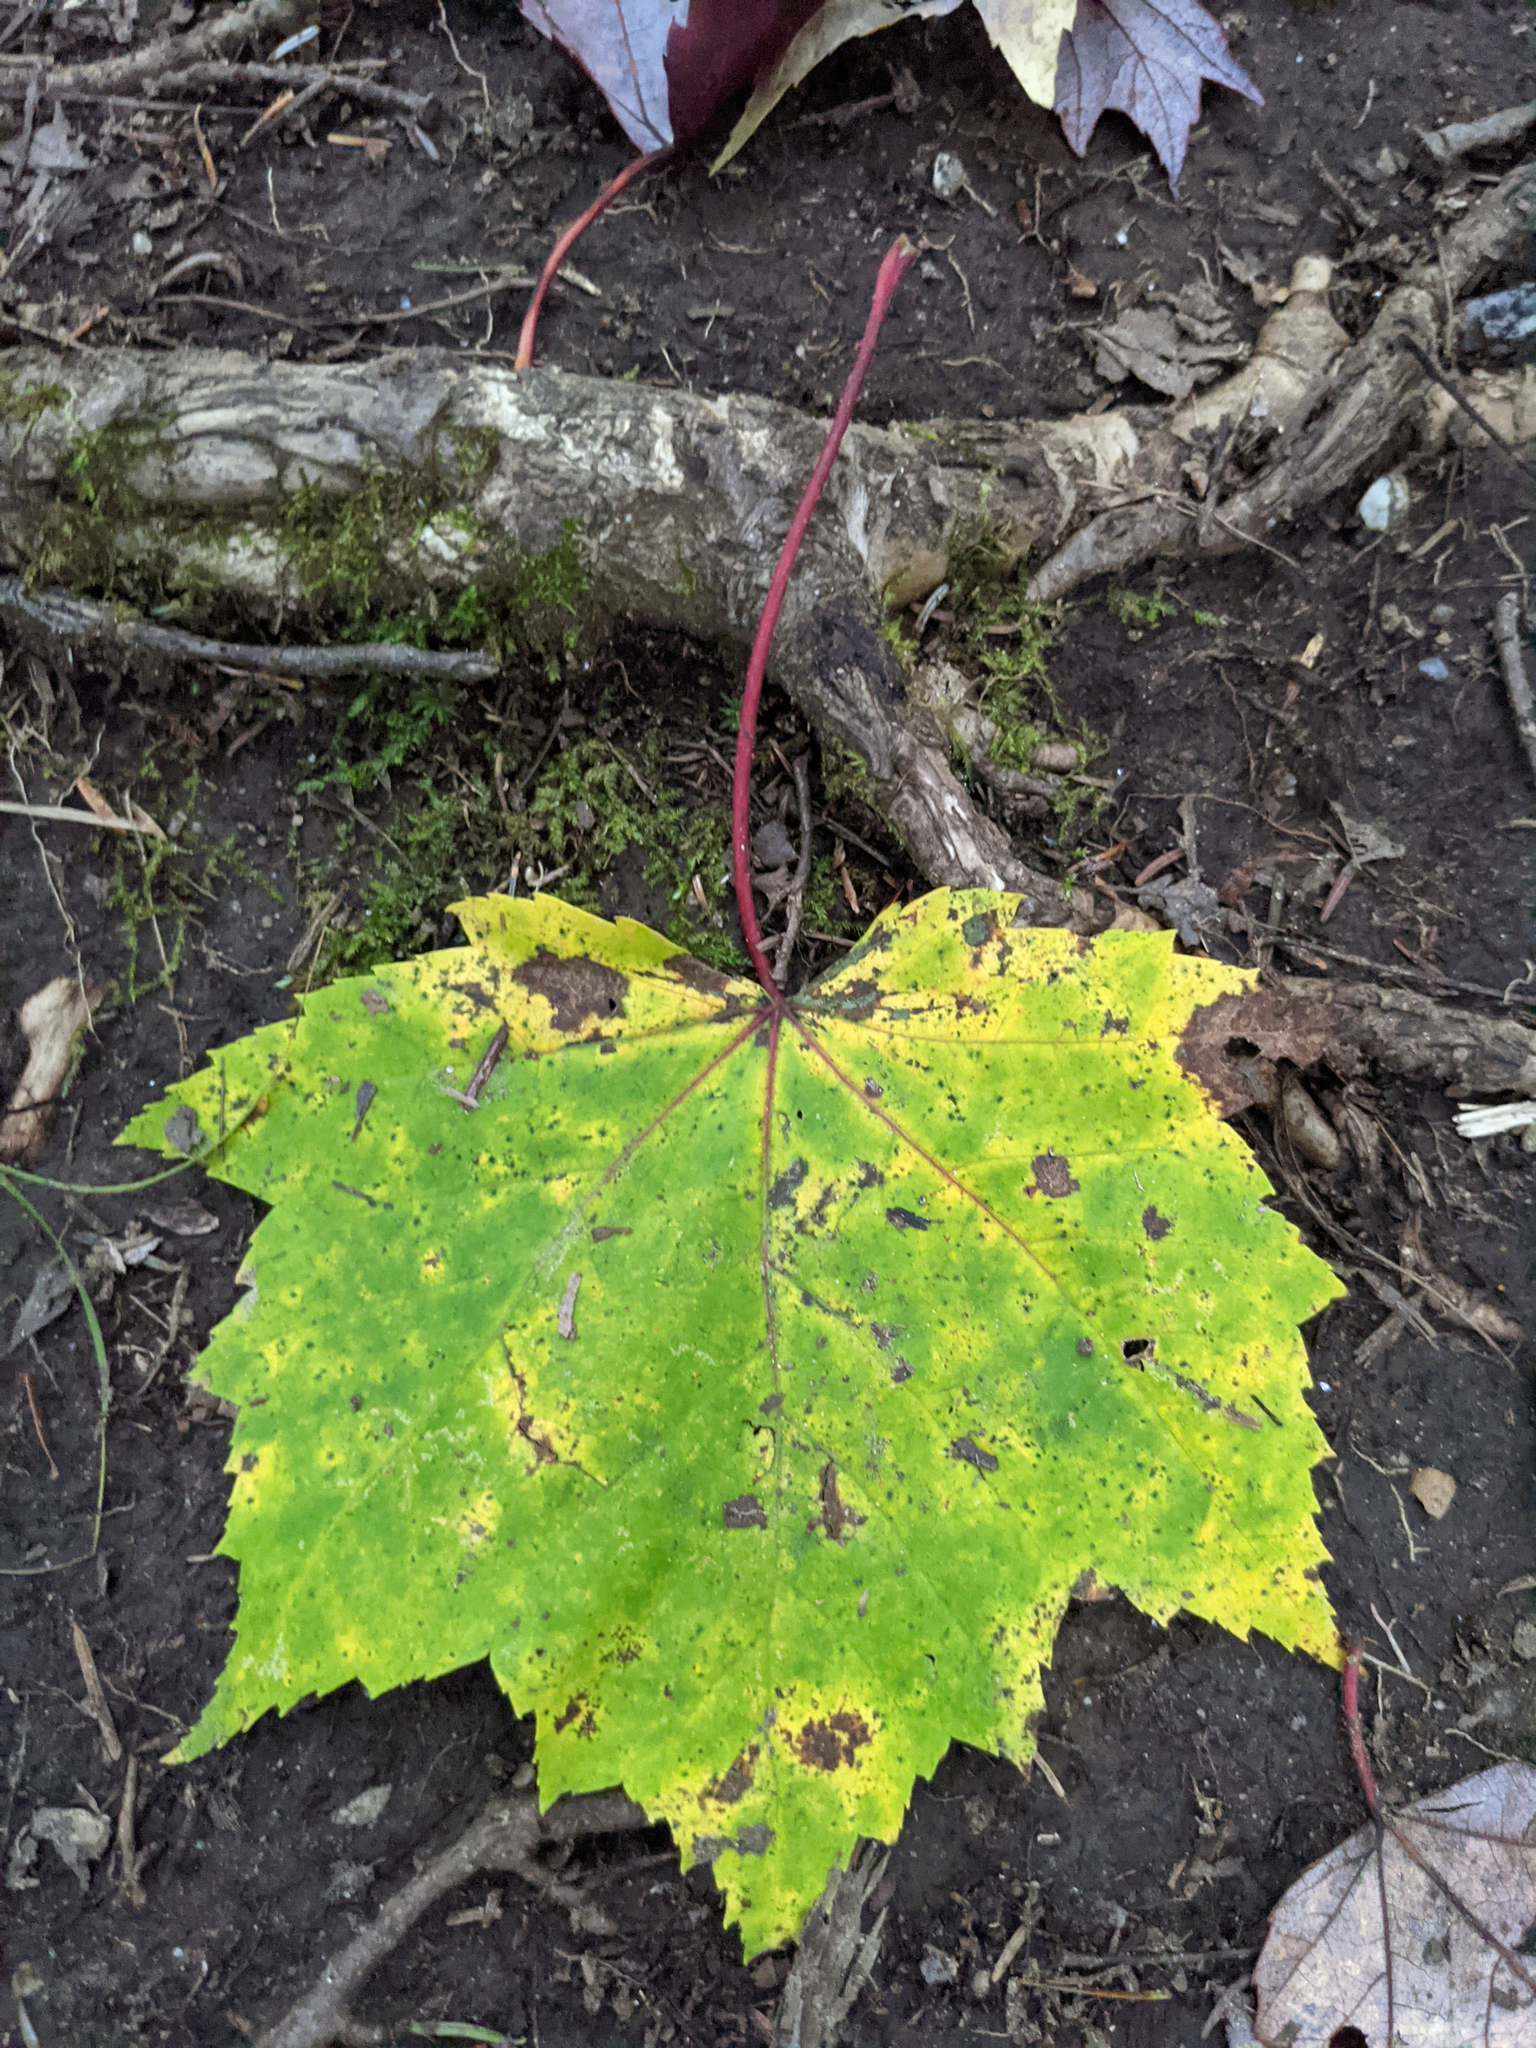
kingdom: Plantae
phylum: Tracheophyta
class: Magnoliopsida
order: Sapindales
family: Sapindaceae
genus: Acer
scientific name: Acer rubrum
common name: Red maple
